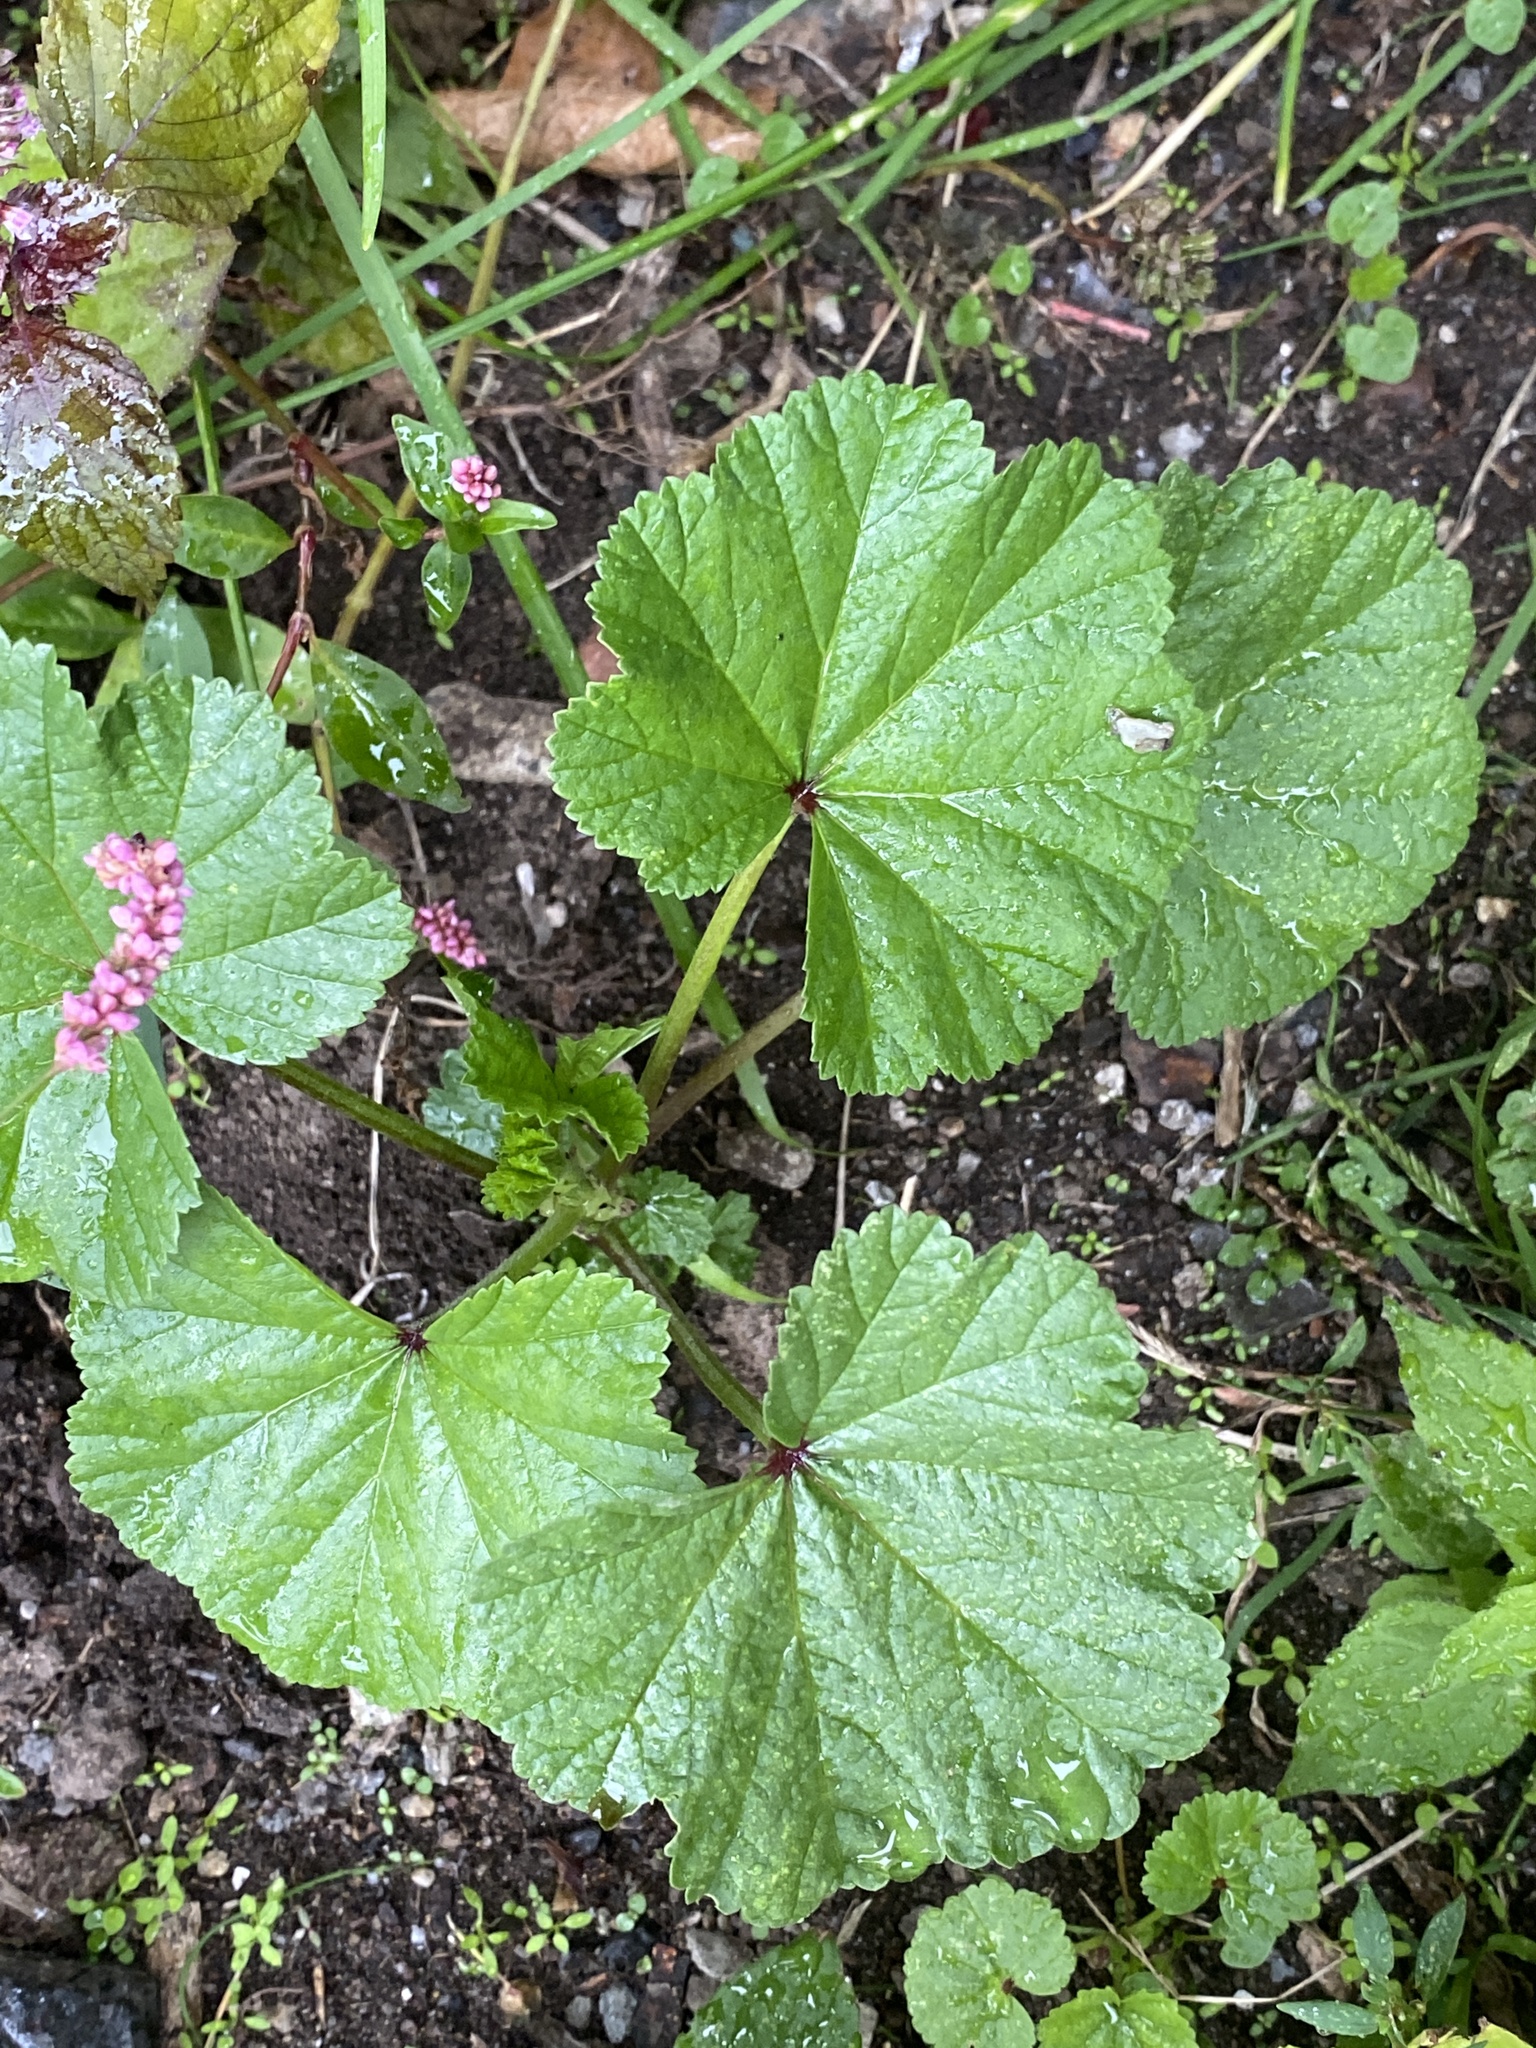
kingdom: Plantae
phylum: Tracheophyta
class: Magnoliopsida
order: Malvales
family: Malvaceae
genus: Malva
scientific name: Malva sylvestris
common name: Common mallow
